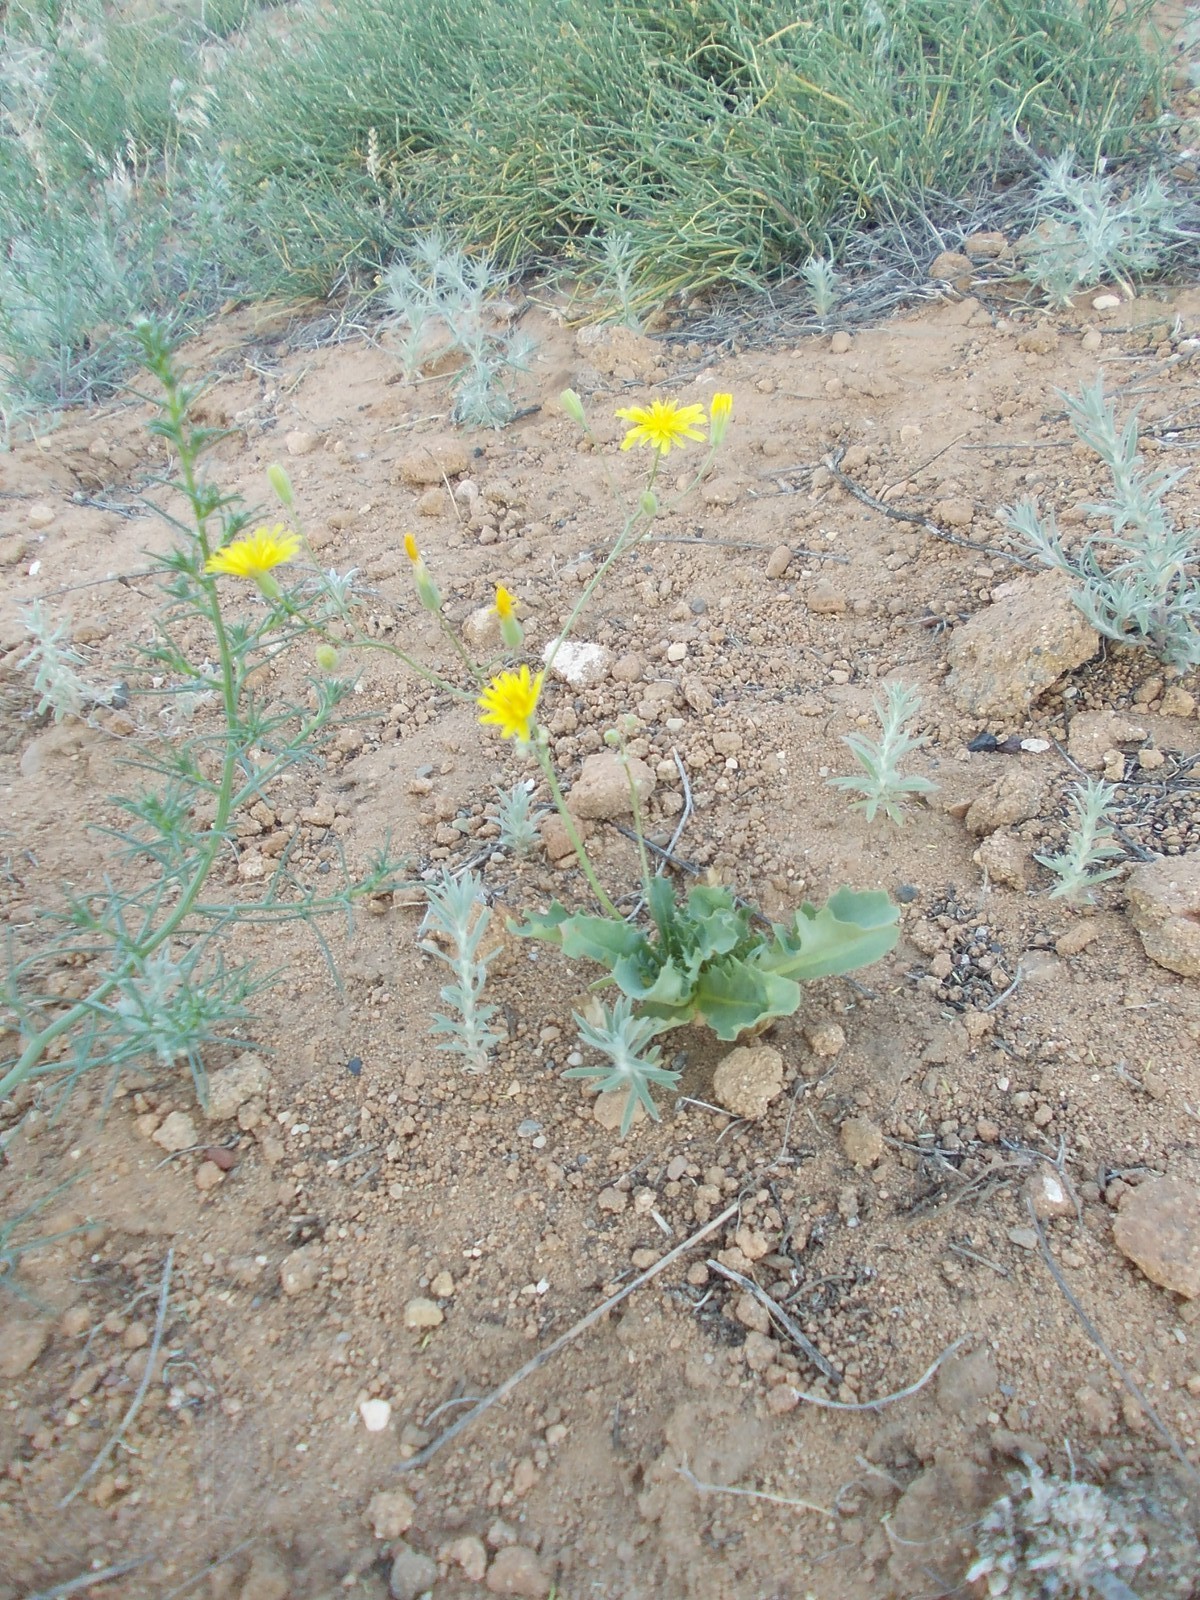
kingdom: Plantae
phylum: Tracheophyta
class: Magnoliopsida
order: Asterales
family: Asteraceae
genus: Crepis
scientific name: Crepis sancta
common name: Hawk's-beard
